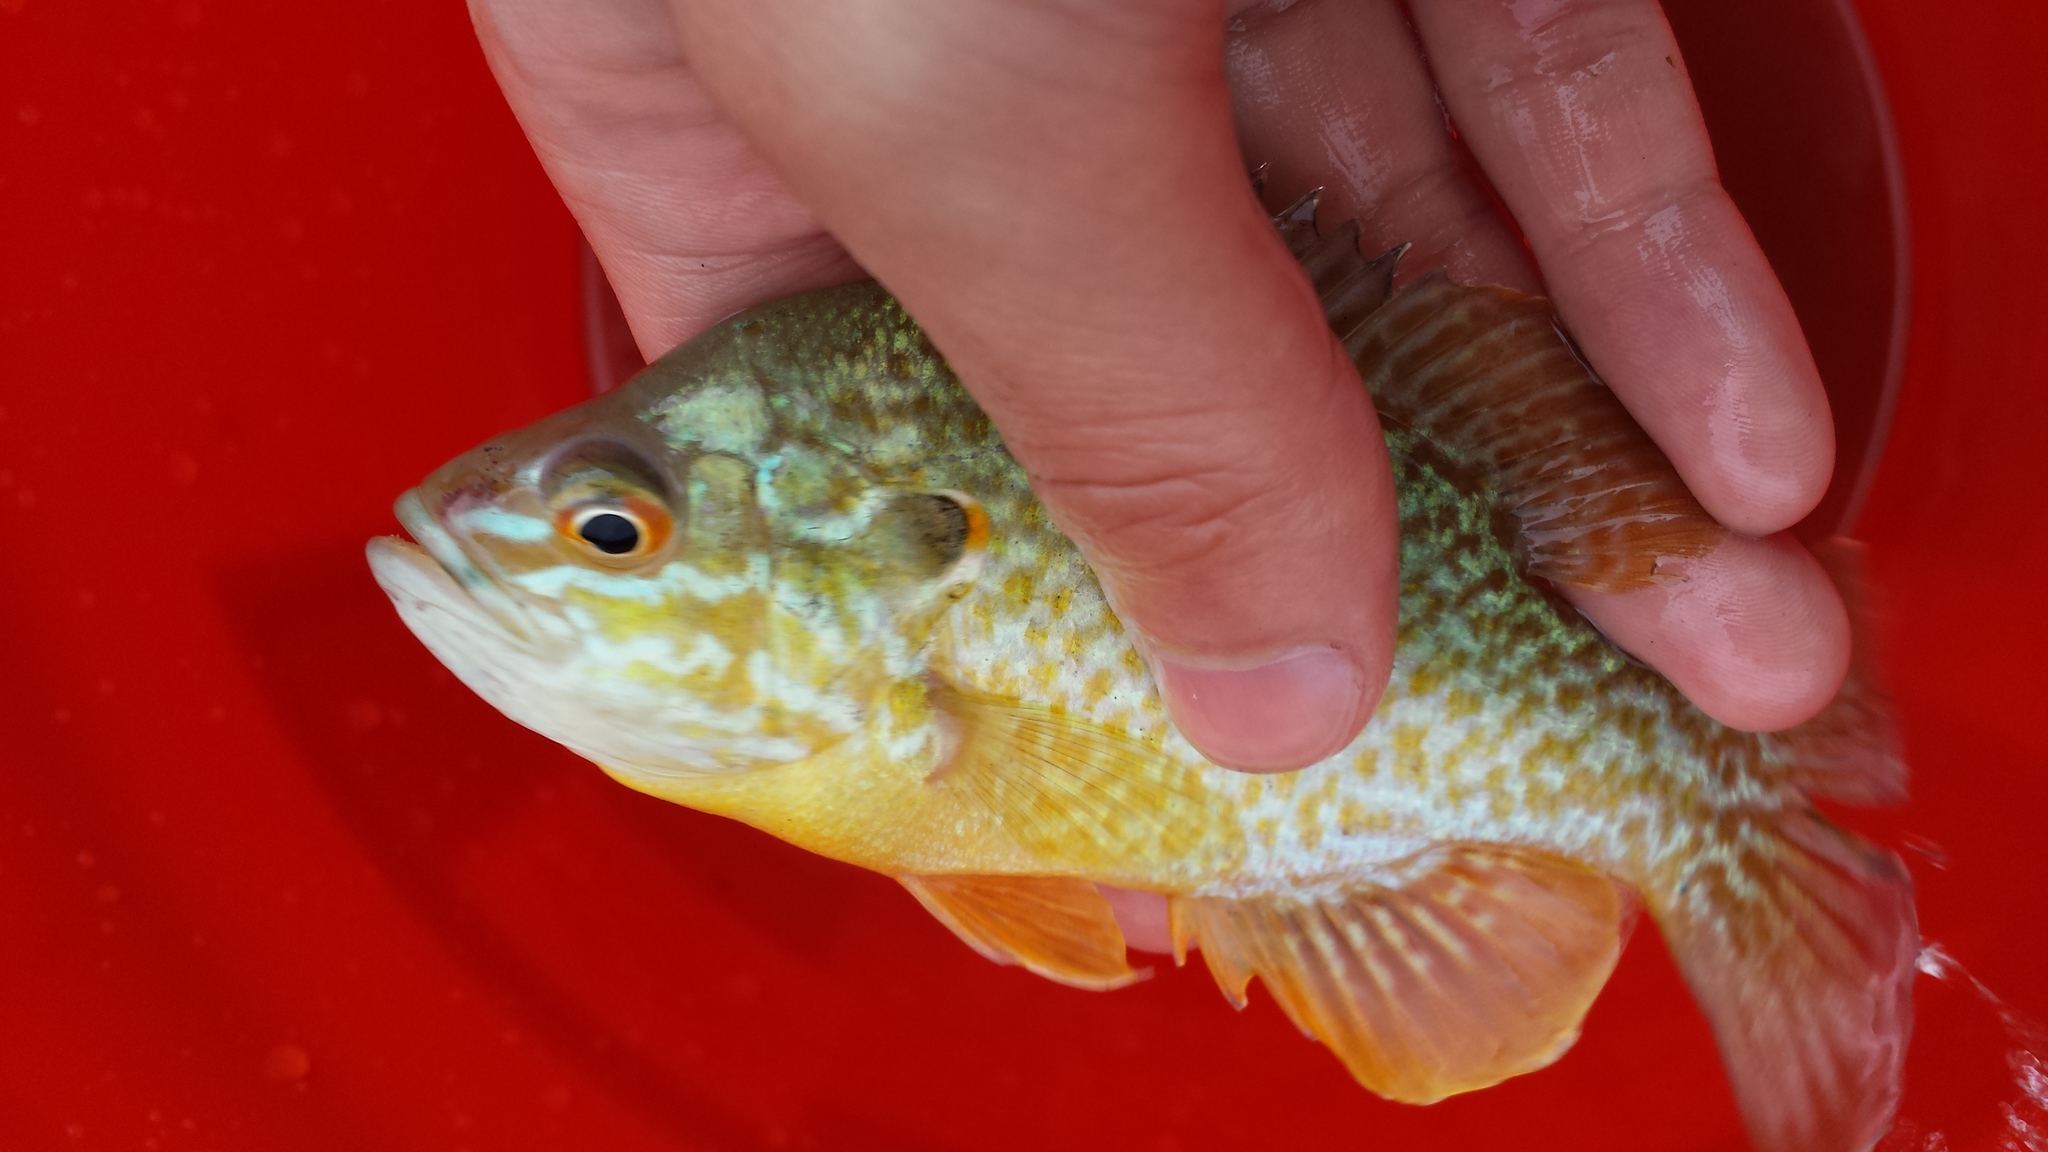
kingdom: Animalia
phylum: Chordata
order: Perciformes
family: Centrarchidae
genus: Lepomis
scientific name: Lepomis gibbosus
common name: Pumpkinseed
